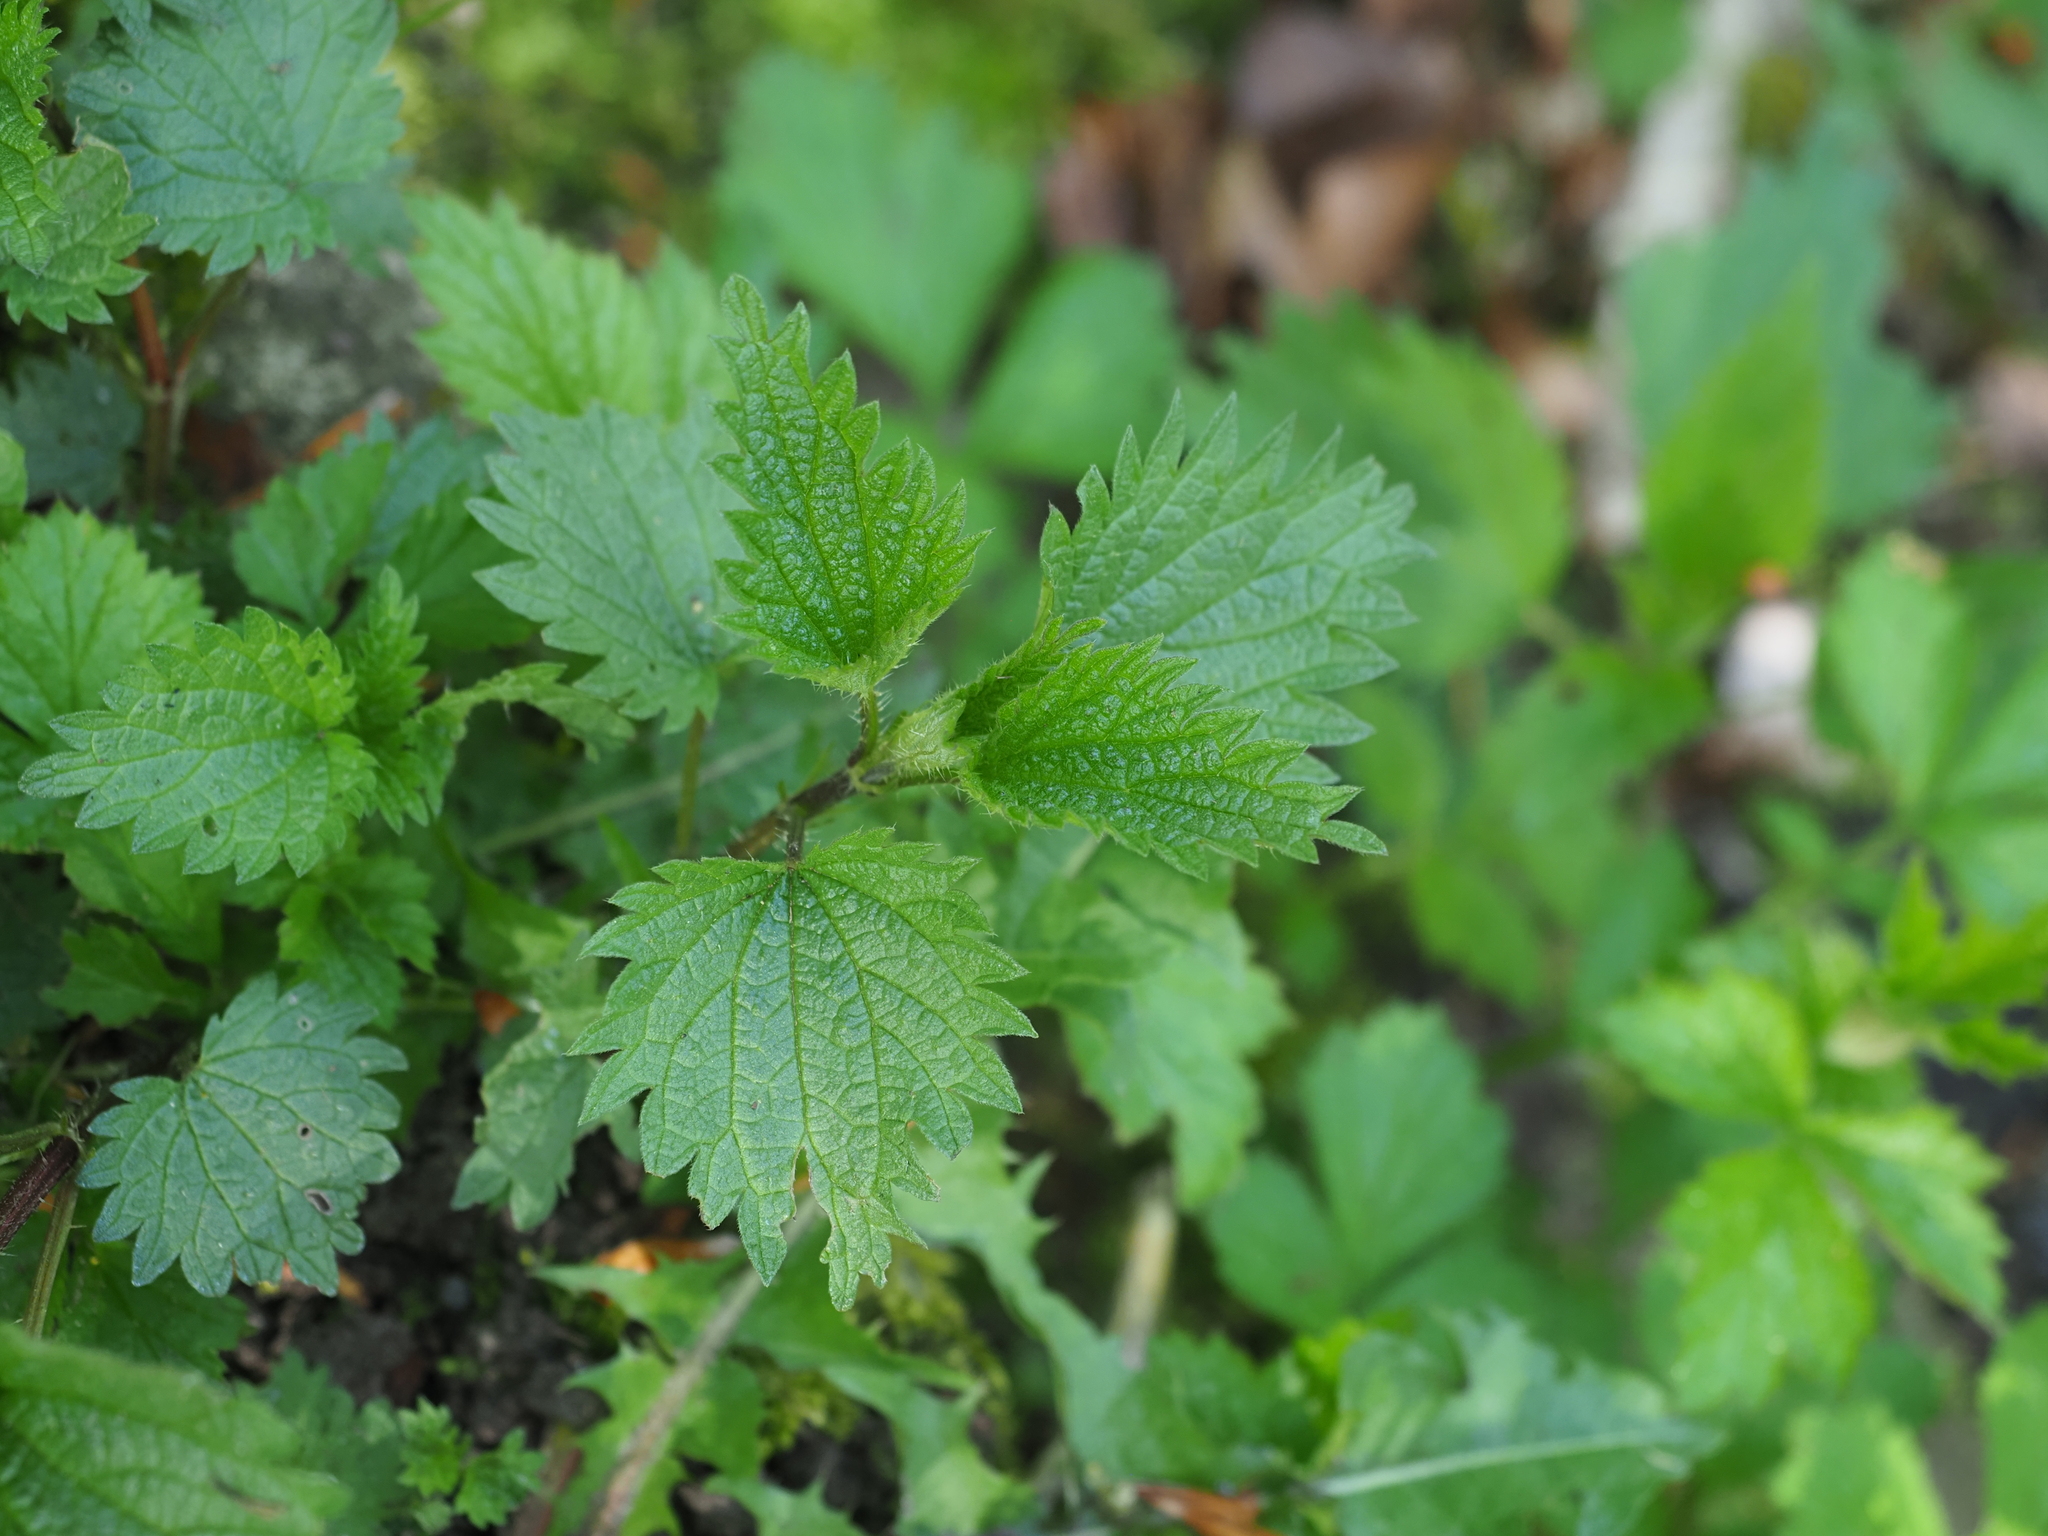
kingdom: Plantae
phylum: Tracheophyta
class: Magnoliopsida
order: Rosales
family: Urticaceae
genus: Urtica
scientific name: Urtica dioica
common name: Common nettle
